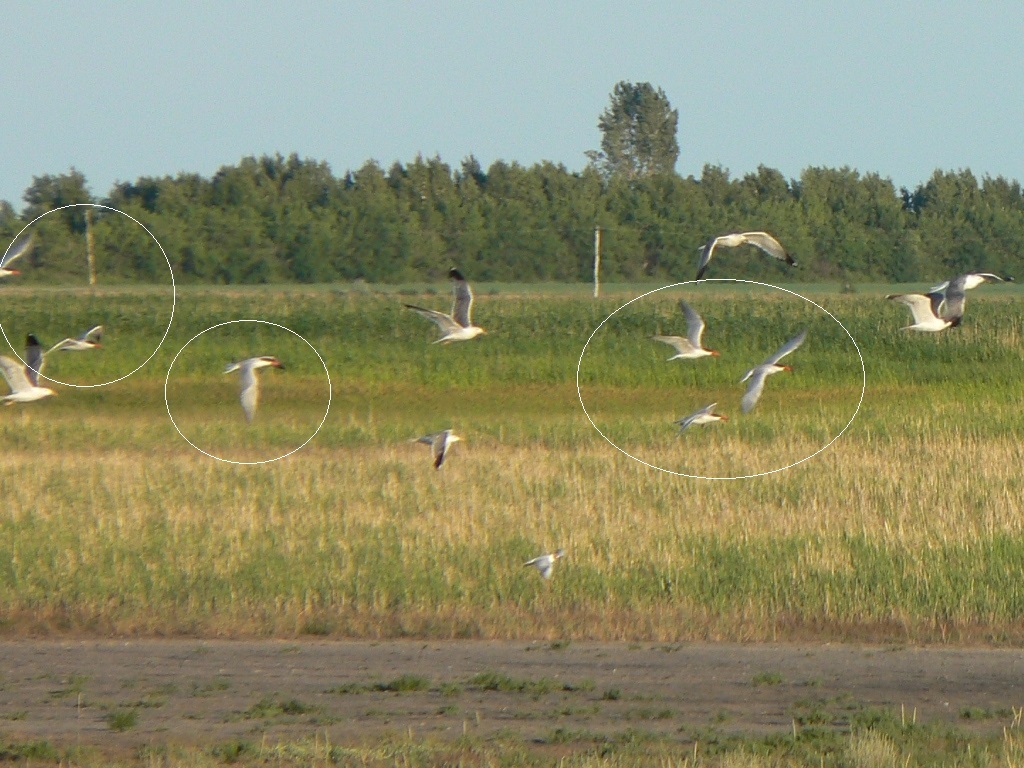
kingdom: Animalia
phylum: Chordata
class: Aves
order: Charadriiformes
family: Laridae
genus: Hydroprogne
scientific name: Hydroprogne caspia
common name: Caspian tern
